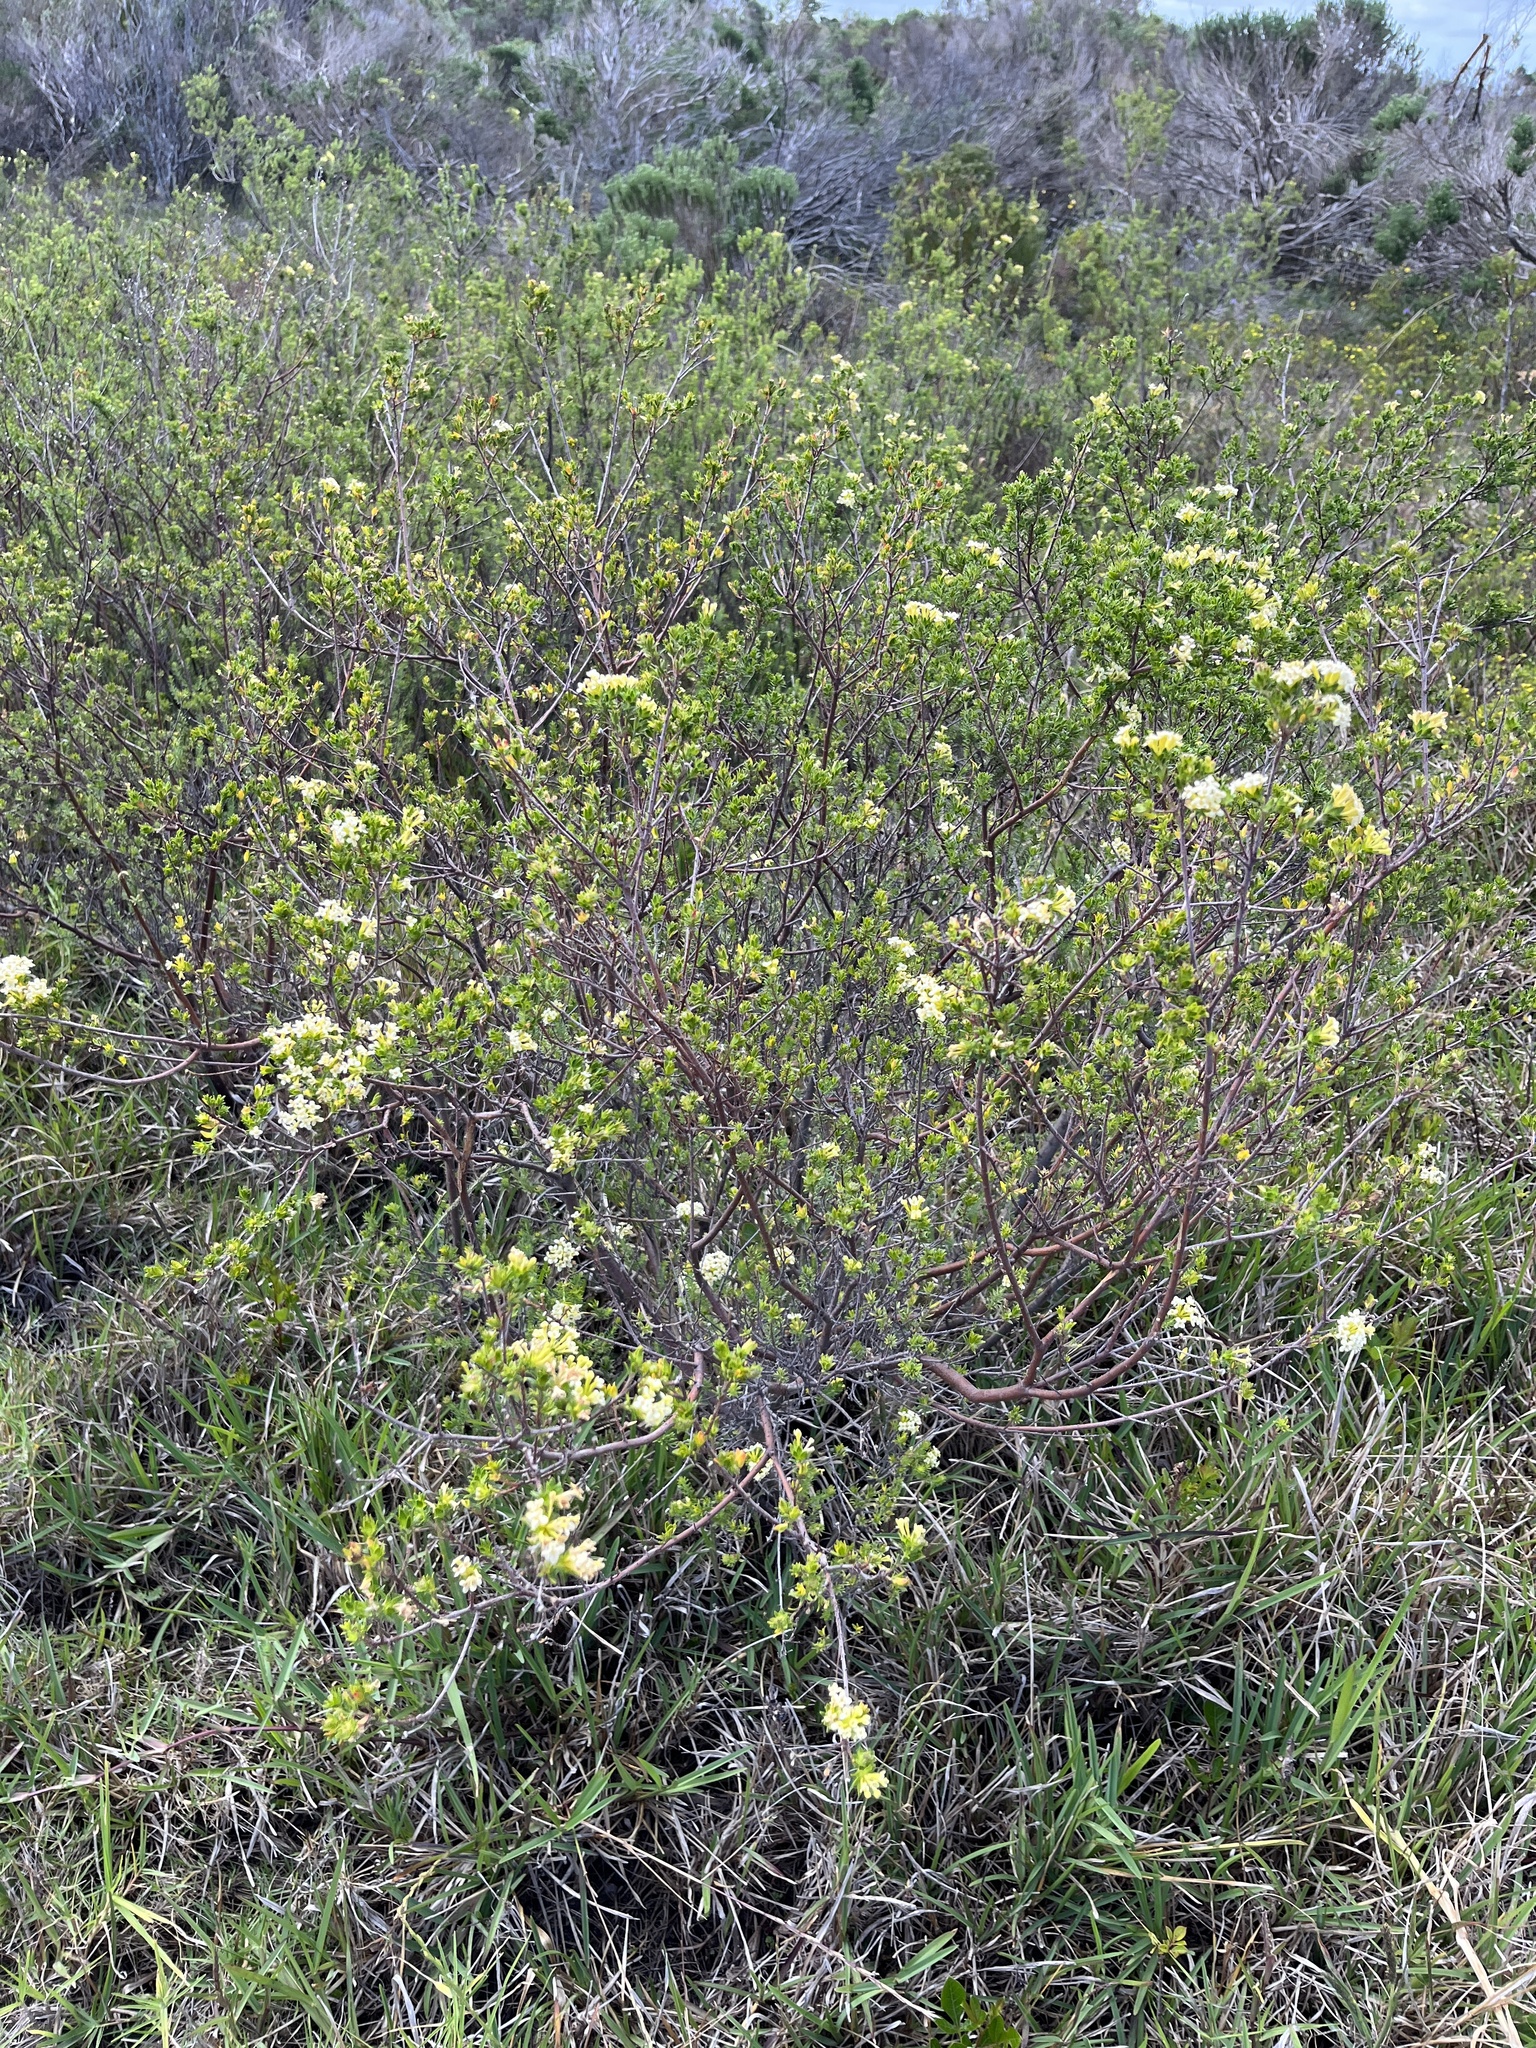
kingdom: Plantae
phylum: Tracheophyta
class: Magnoliopsida
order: Malvales
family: Thymelaeaceae
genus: Gnidia
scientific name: Gnidia squarrosa
